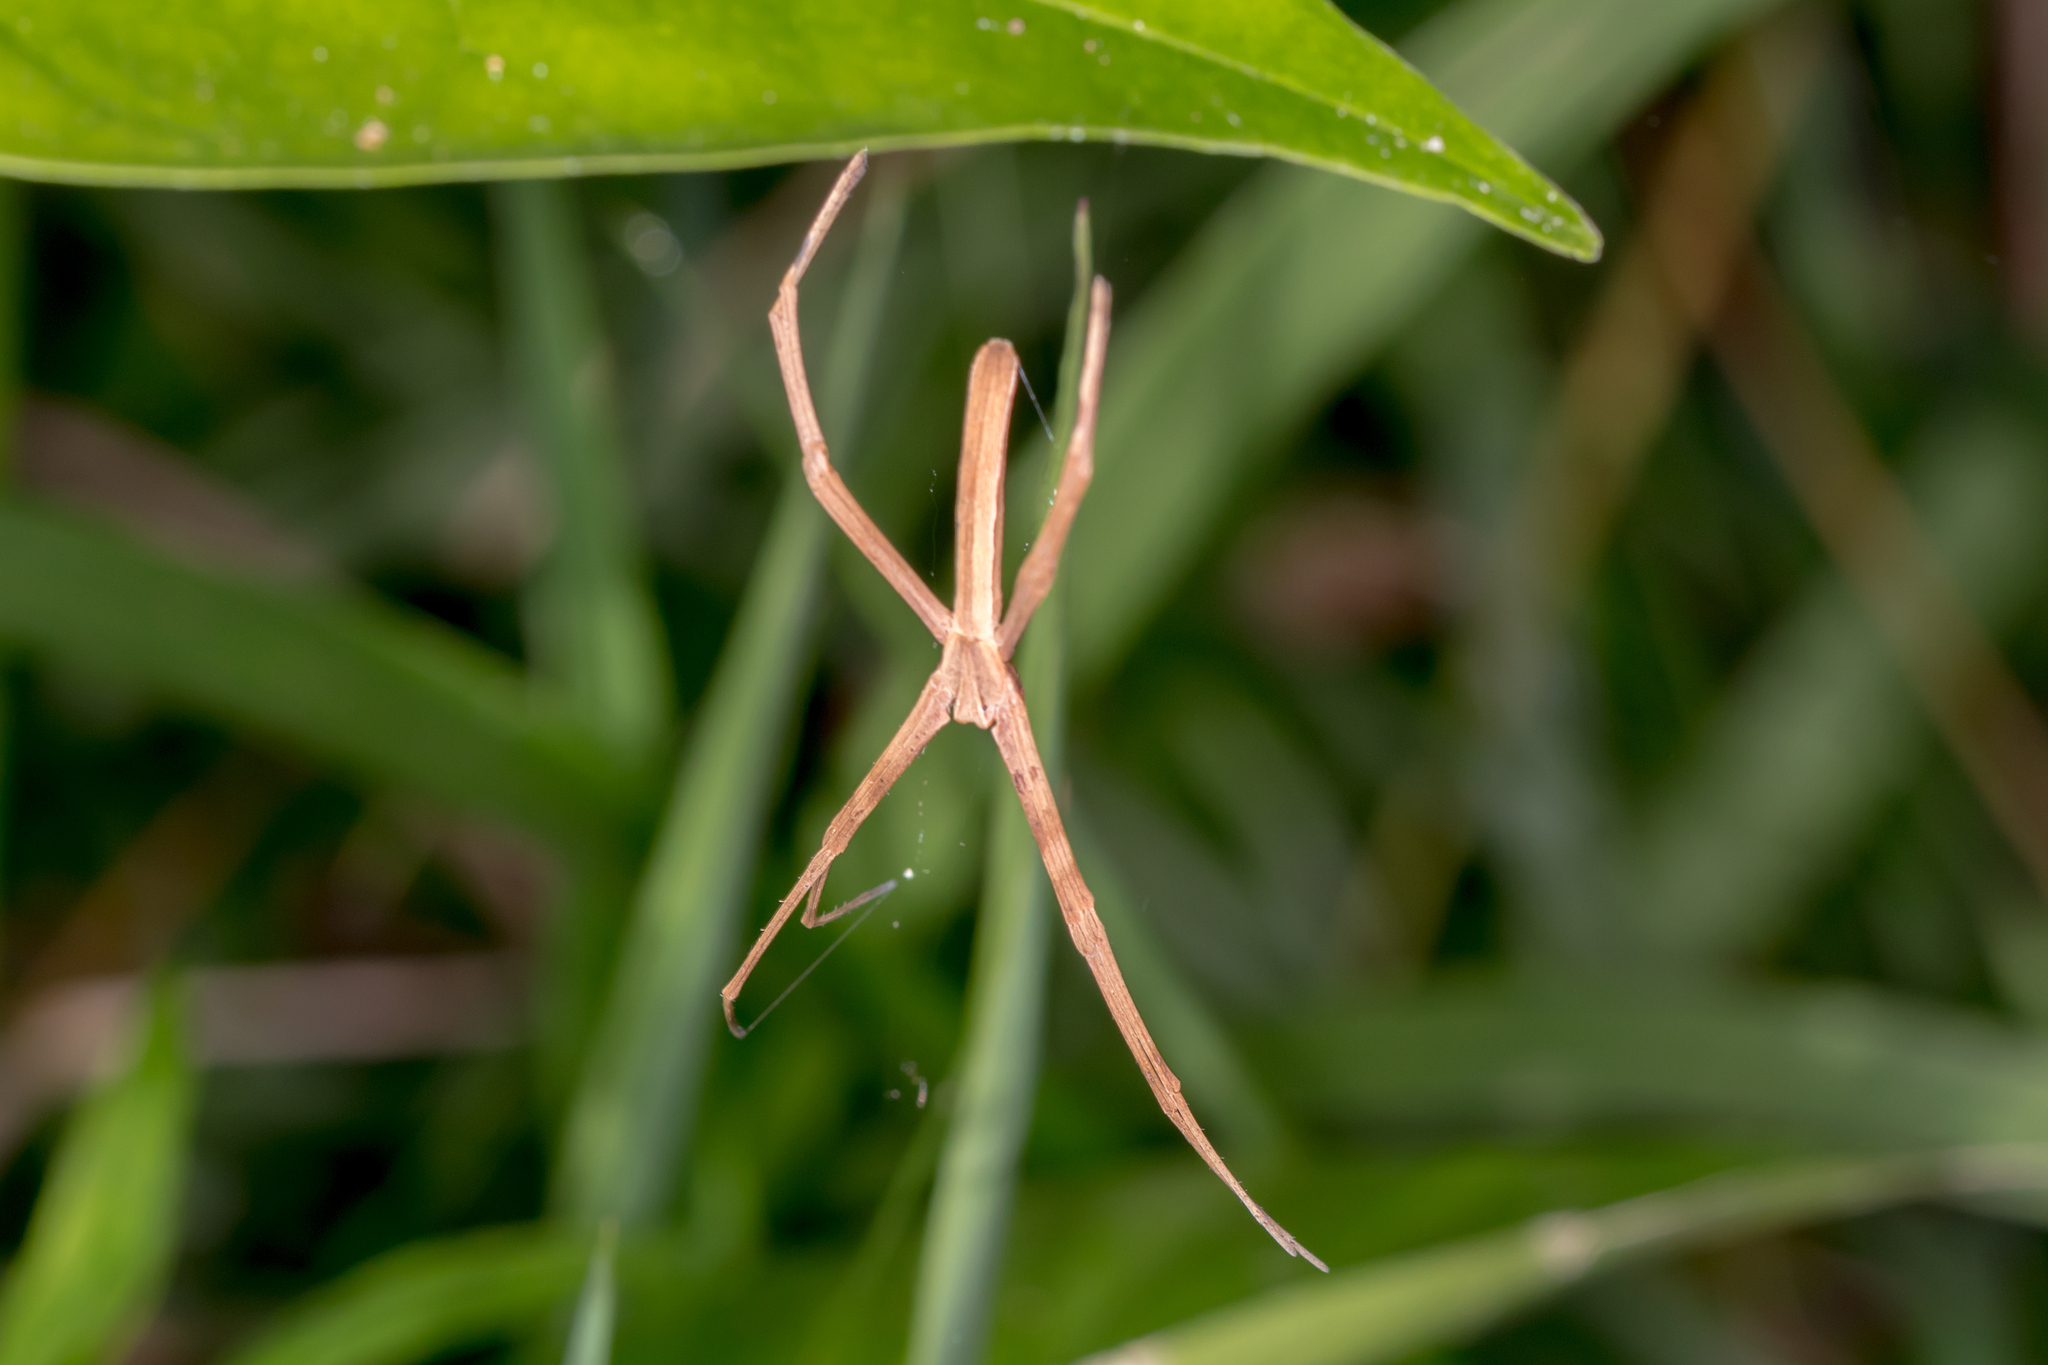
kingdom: Animalia
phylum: Arthropoda
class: Arachnida
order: Araneae
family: Deinopidae
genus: Deinopis
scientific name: Deinopis subrufa
